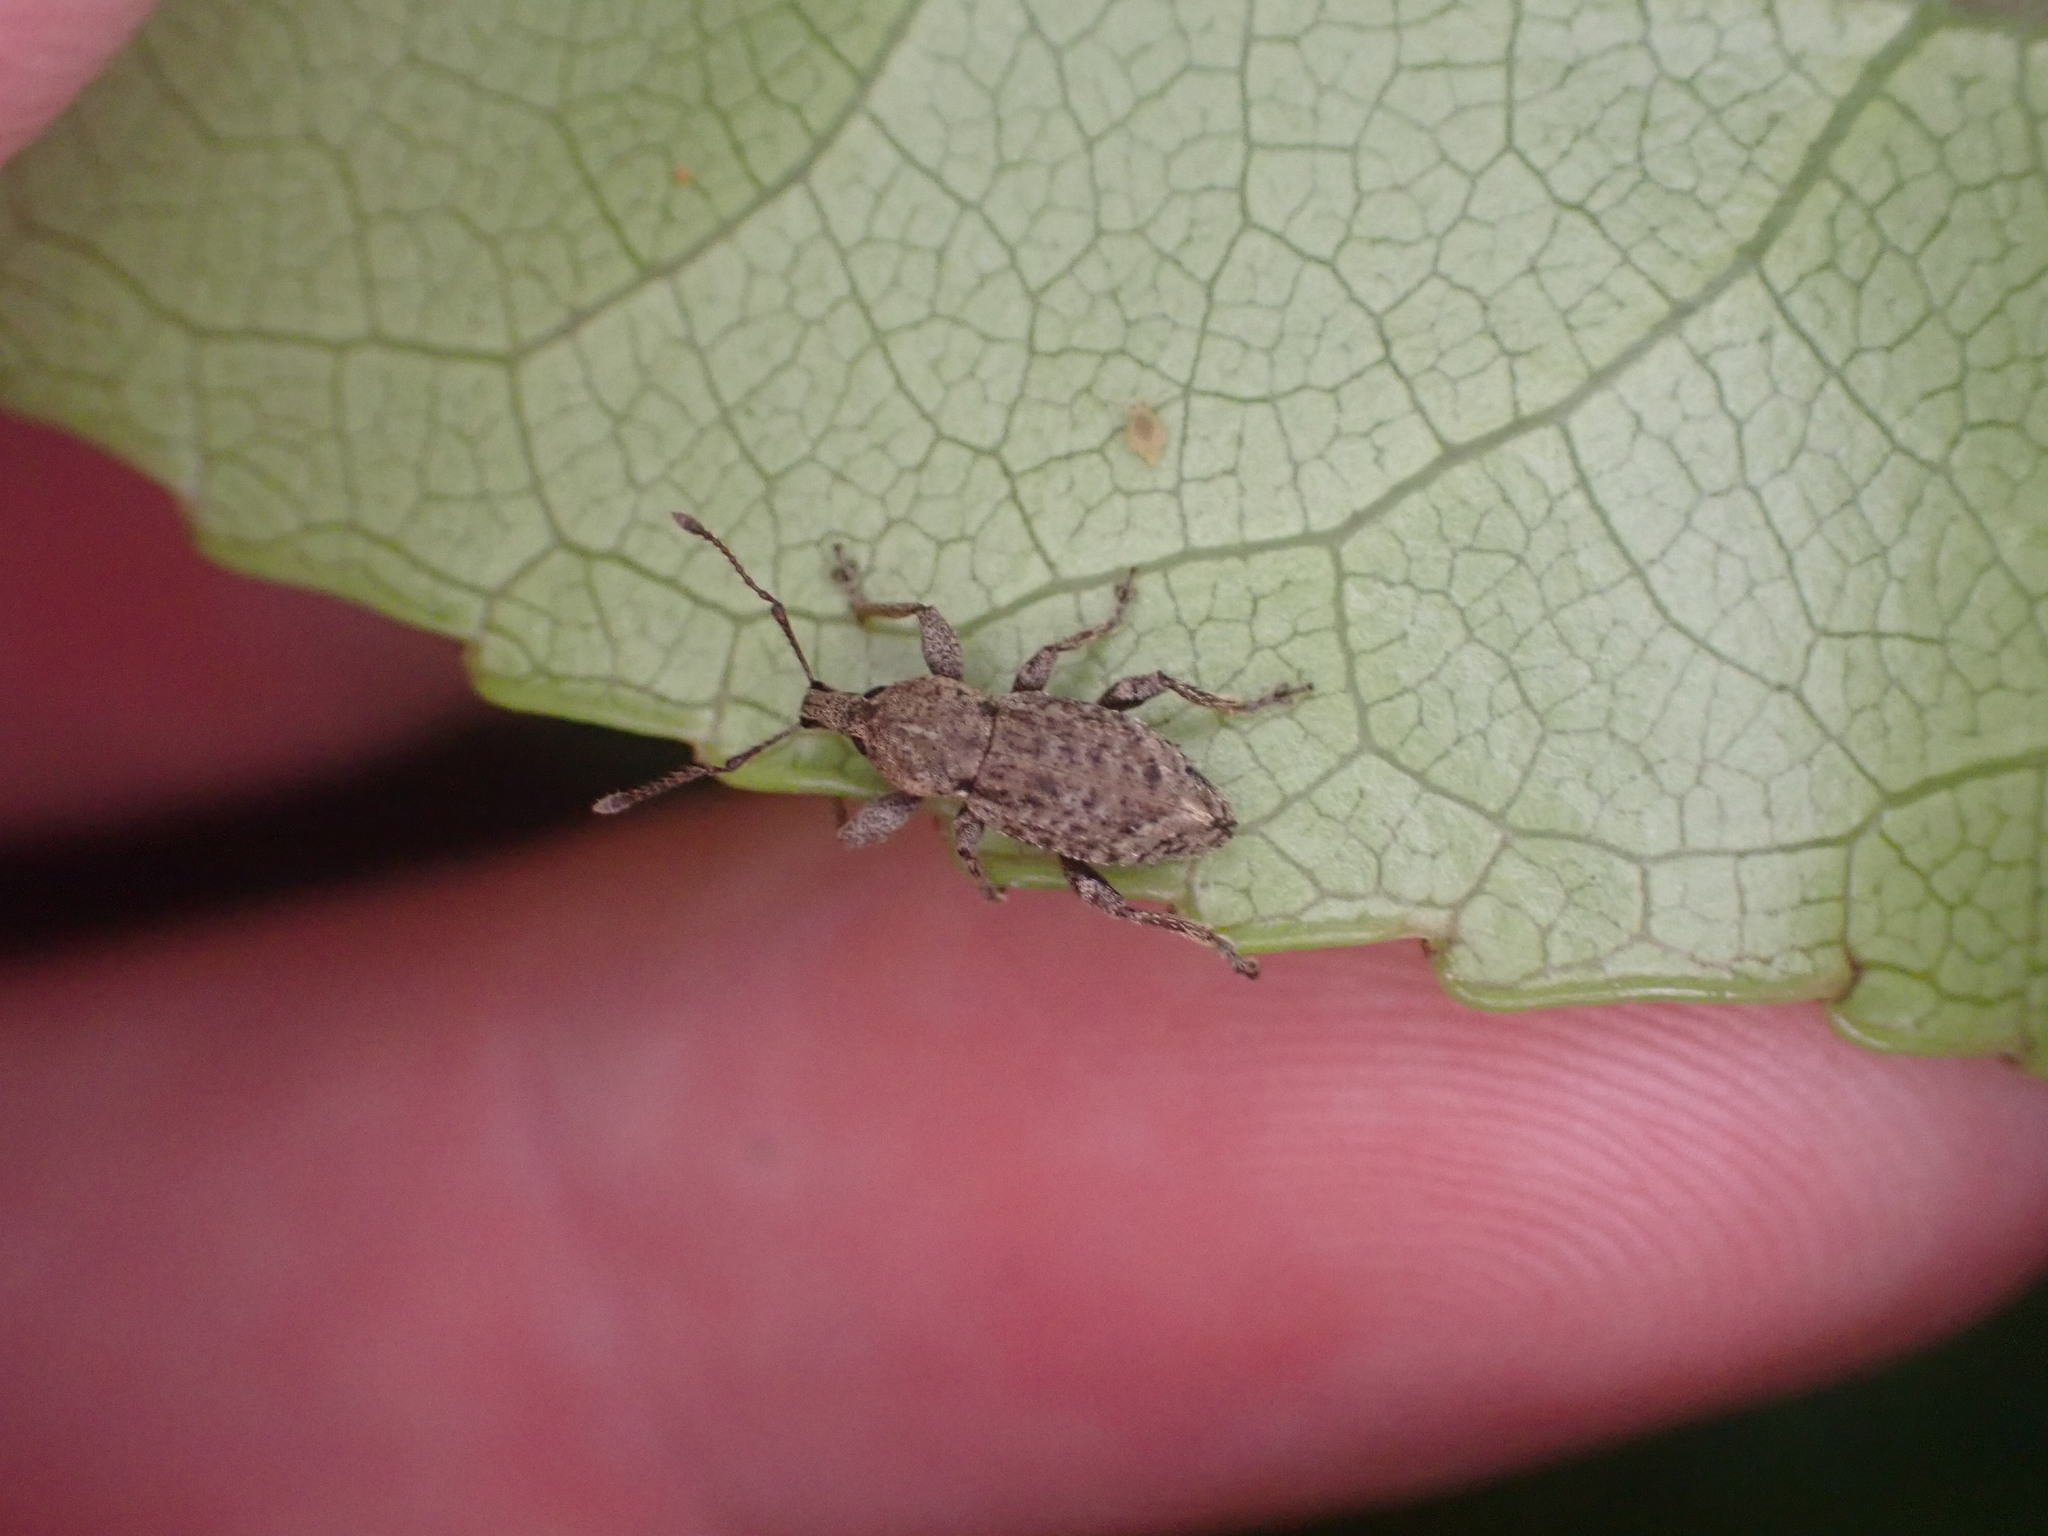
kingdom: Animalia
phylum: Arthropoda
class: Insecta
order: Coleoptera
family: Curculionidae
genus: Chalepistes
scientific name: Chalepistes compressus
